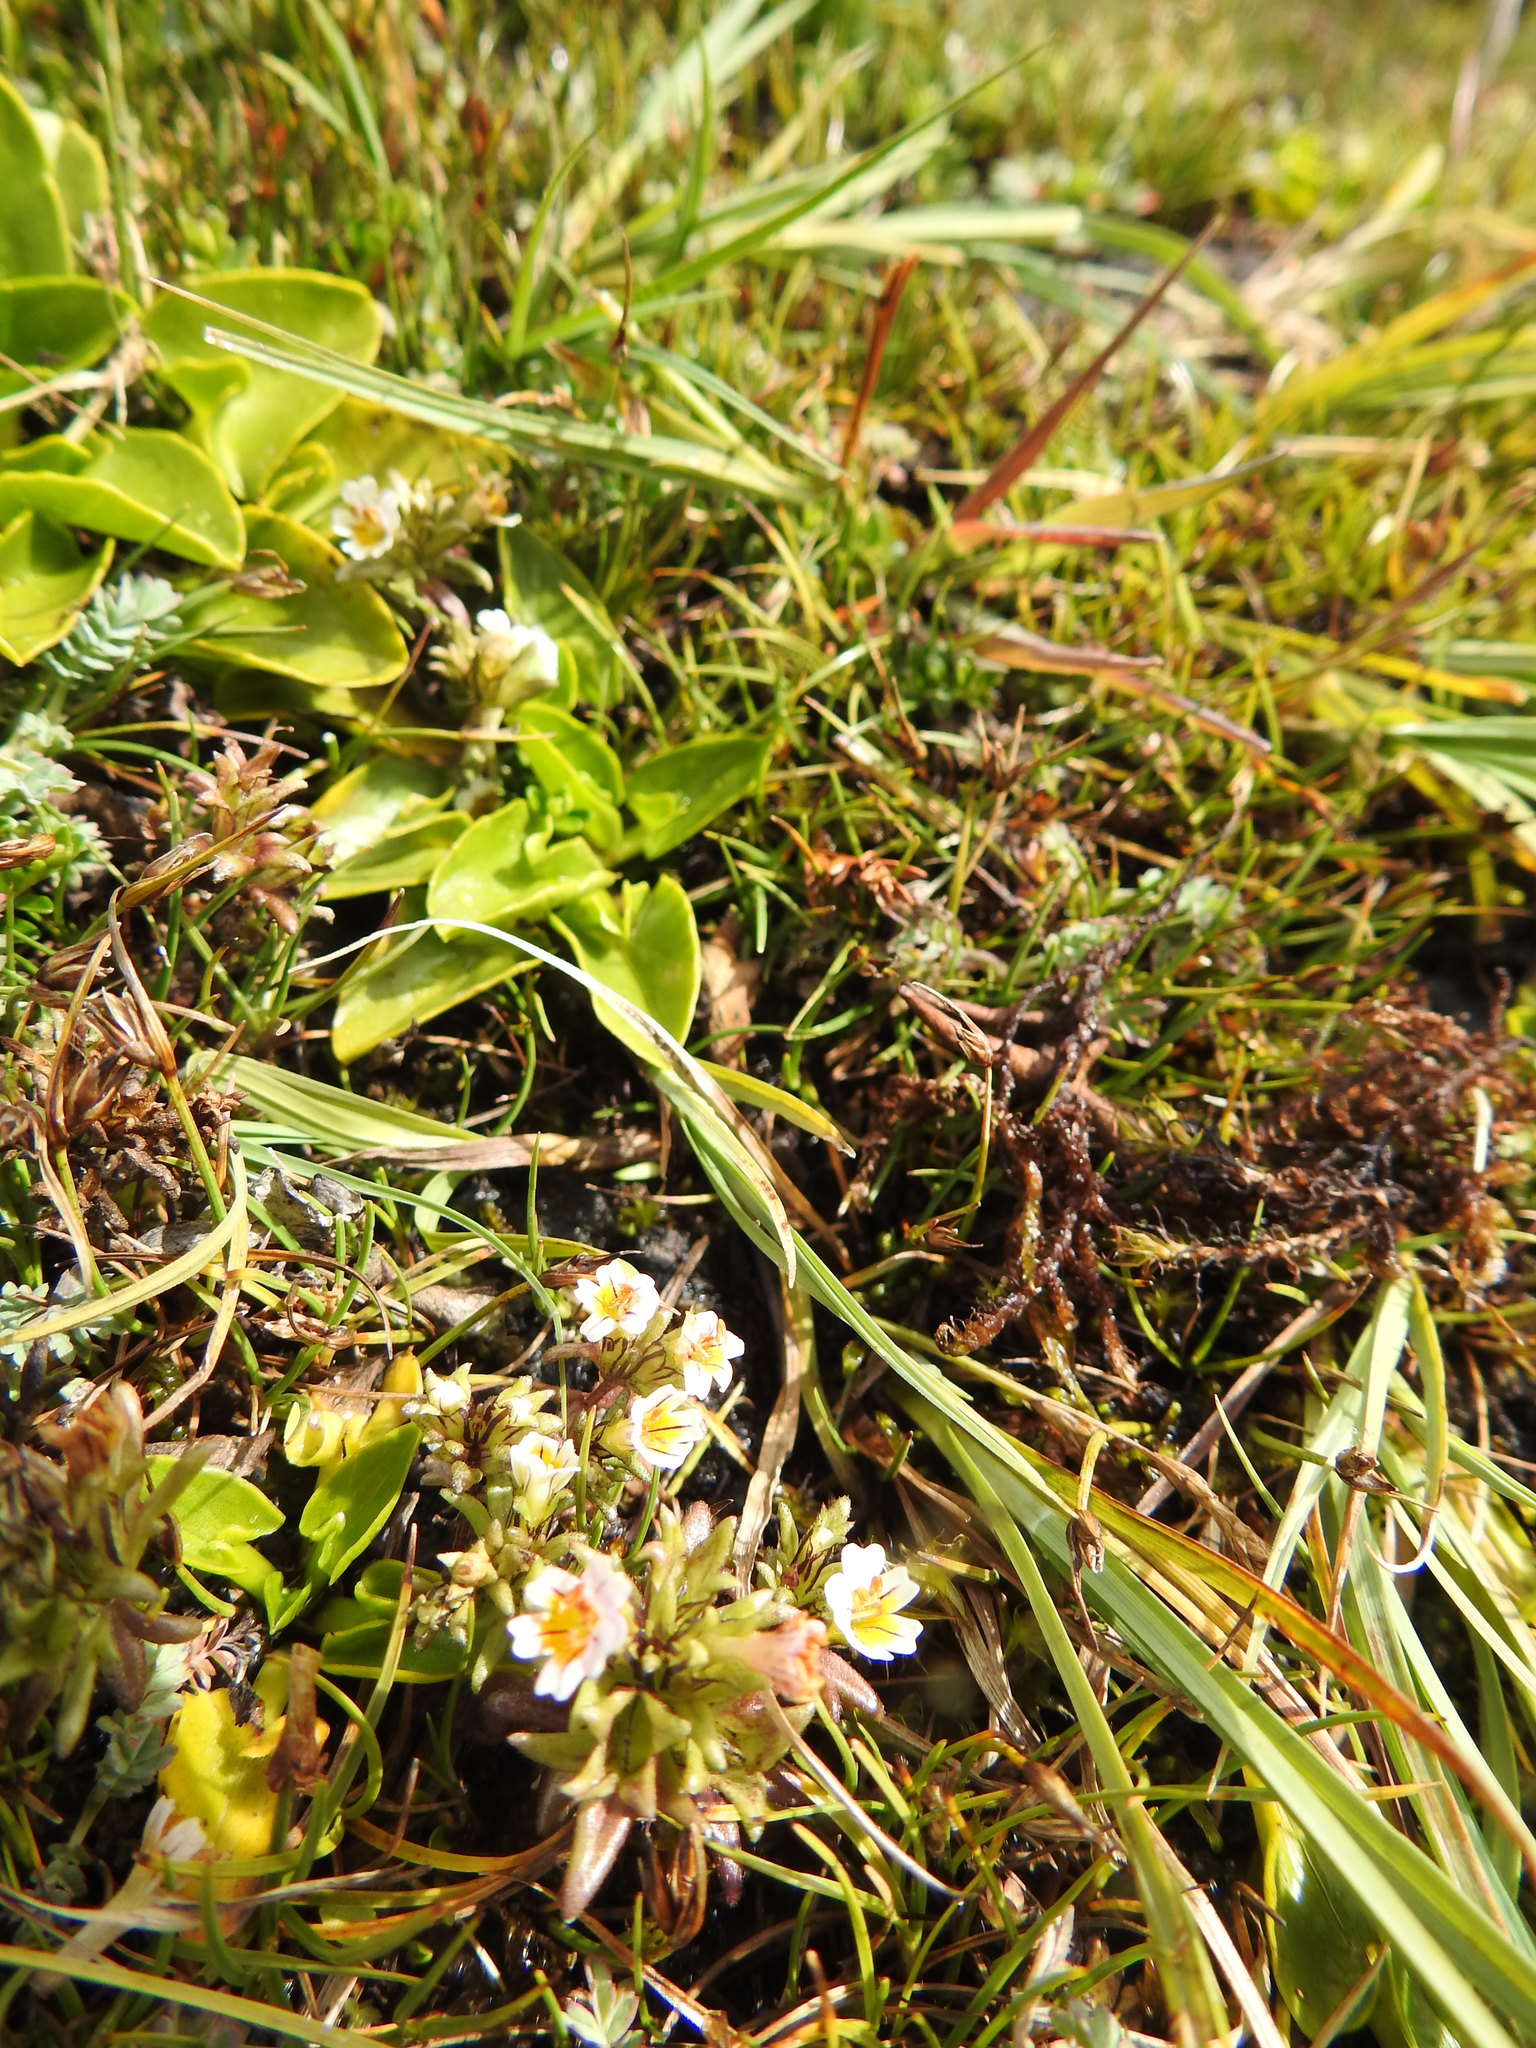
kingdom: Plantae
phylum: Tracheophyta
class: Magnoliopsida
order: Lamiales
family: Orobanchaceae
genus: Euphrasia
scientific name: Euphrasia antarctica
